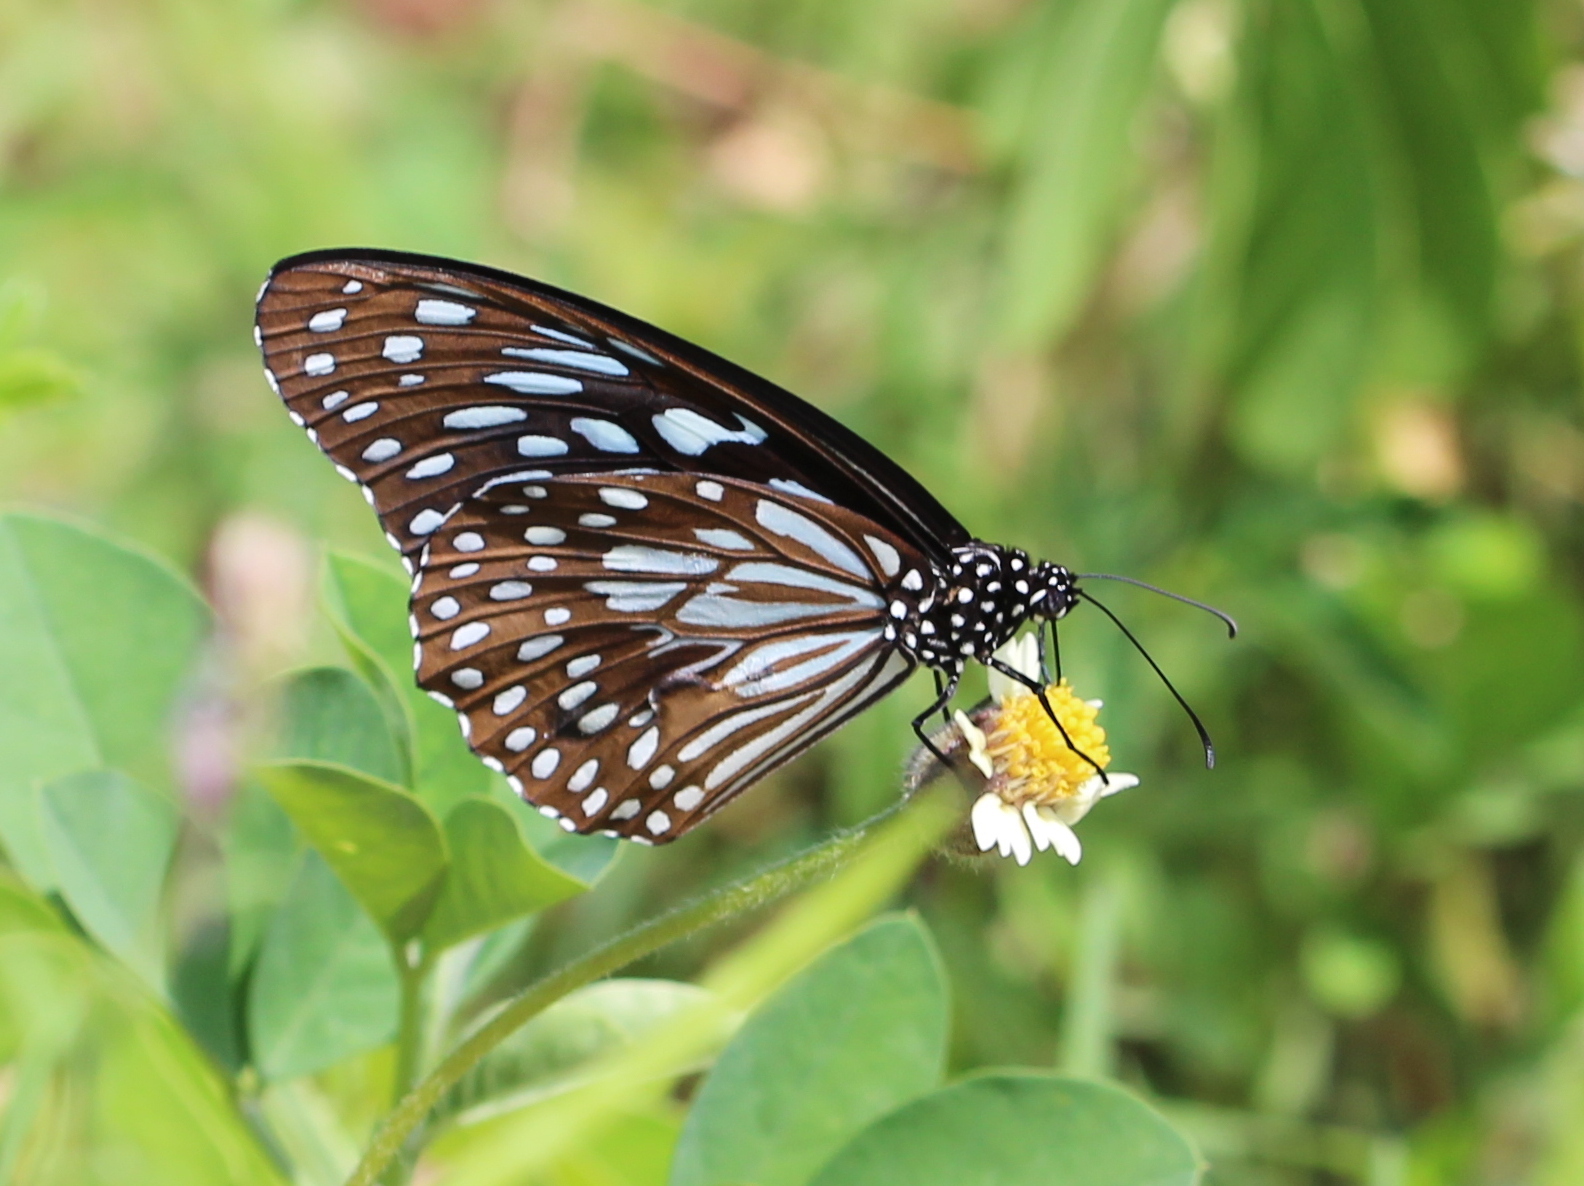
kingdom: Animalia
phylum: Arthropoda
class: Insecta
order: Lepidoptera
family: Nymphalidae
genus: Tirumala
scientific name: Tirumala septentrionis
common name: Dark blue tiger butterfly
